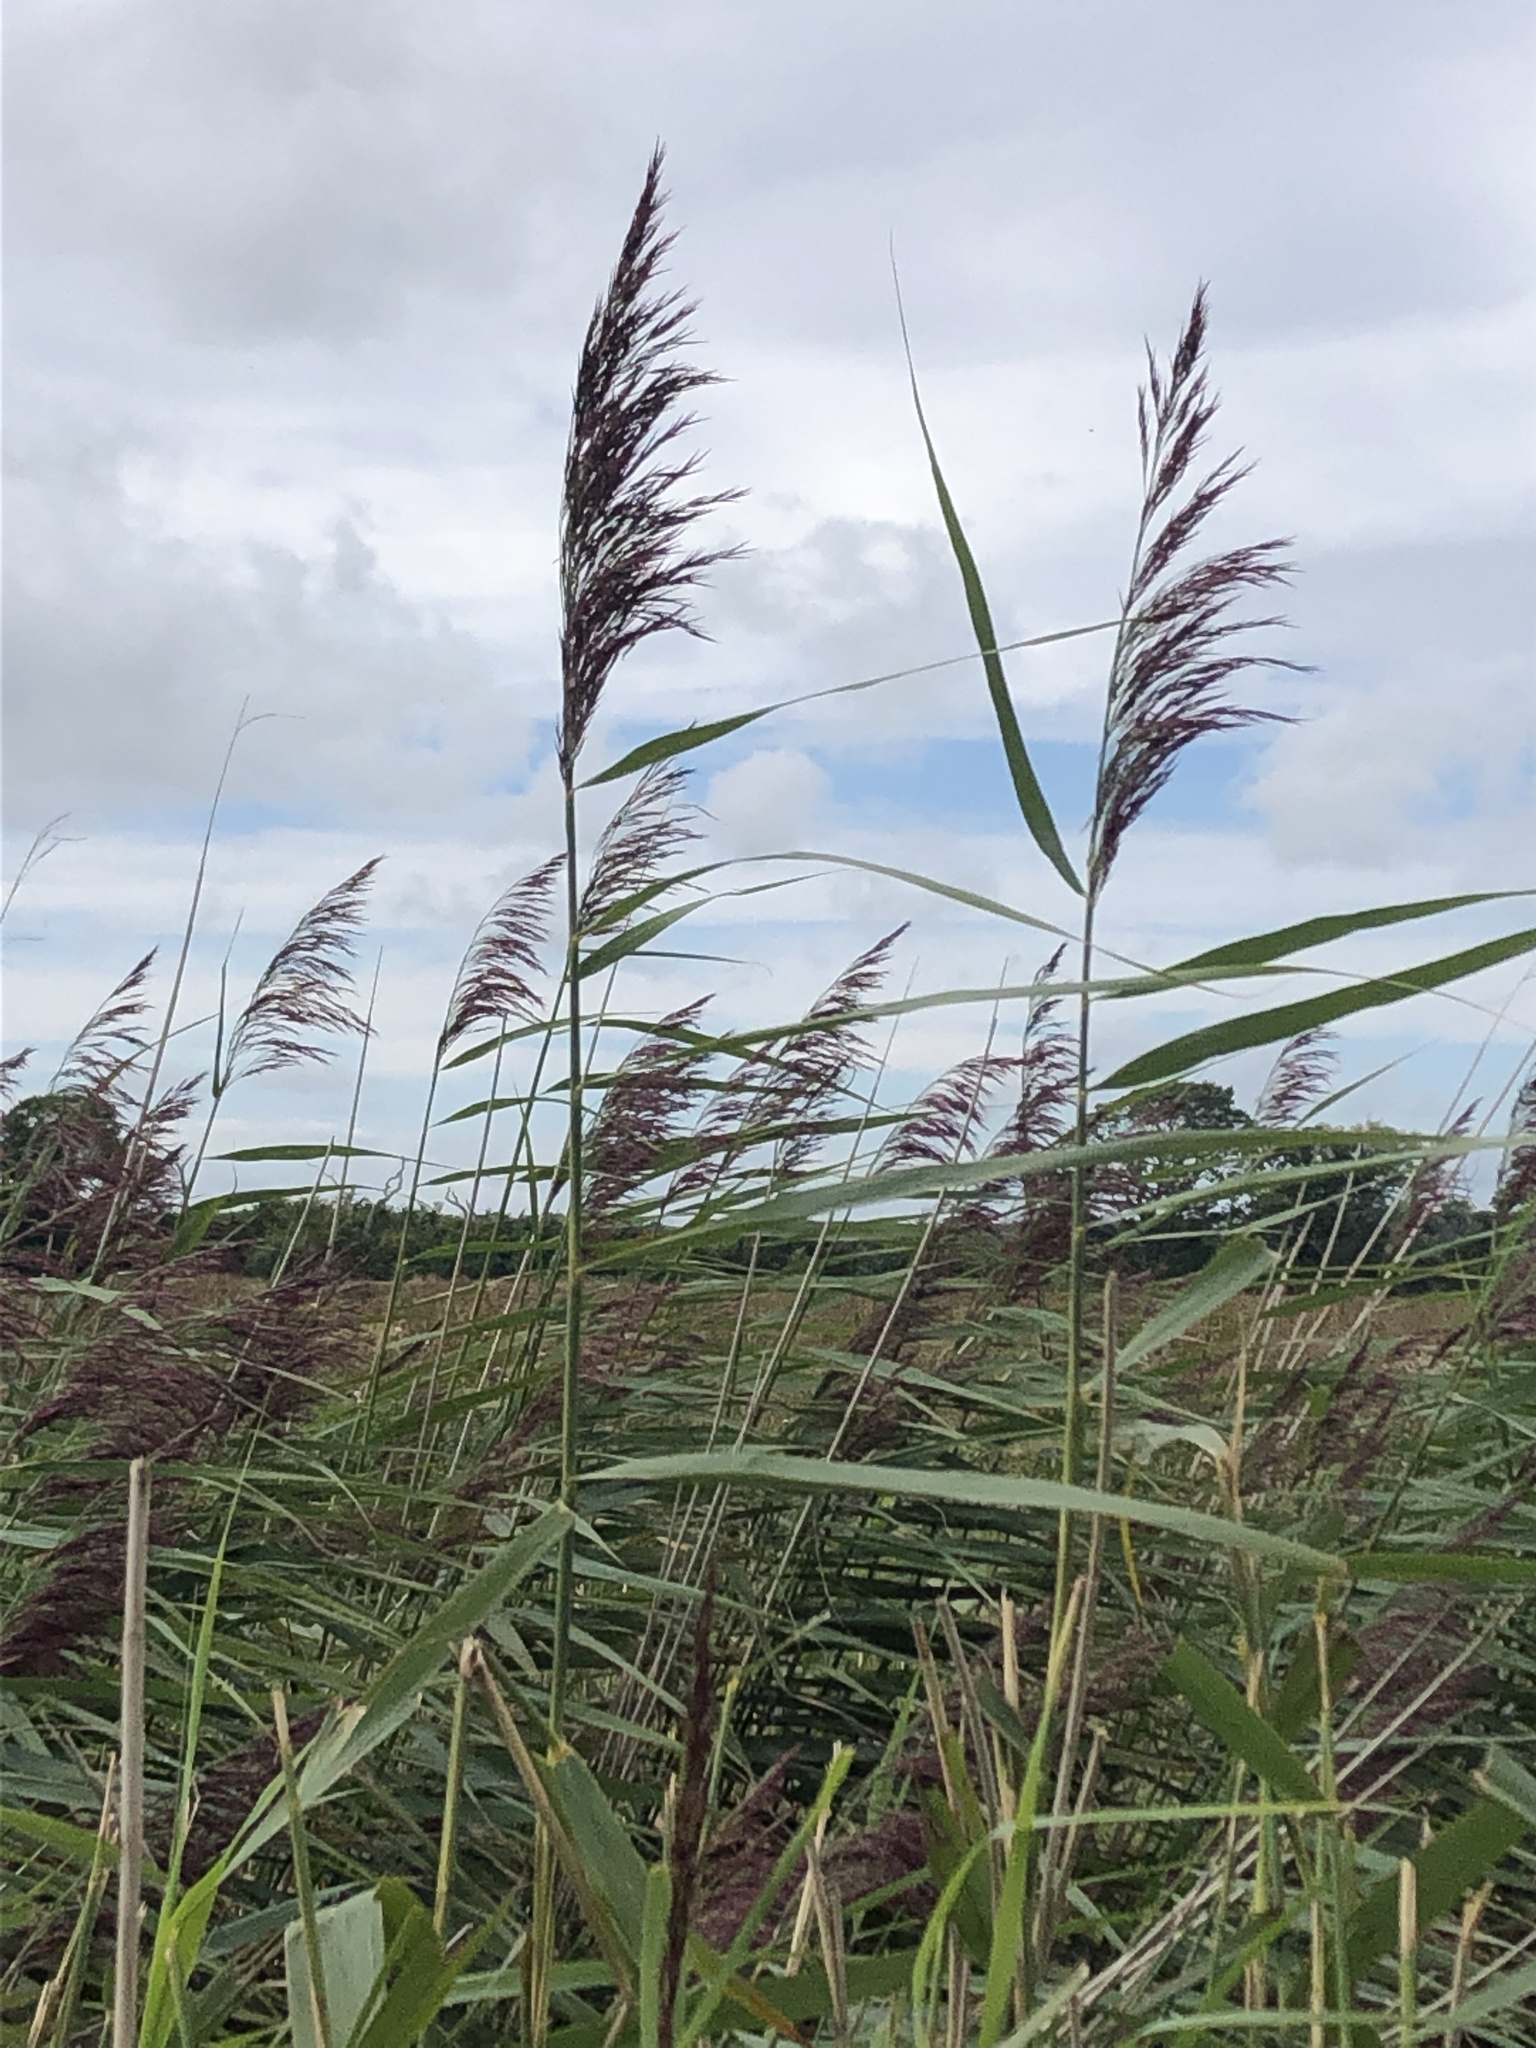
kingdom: Plantae
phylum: Tracheophyta
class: Liliopsida
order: Poales
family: Poaceae
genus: Phragmites
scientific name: Phragmites australis
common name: Common reed
